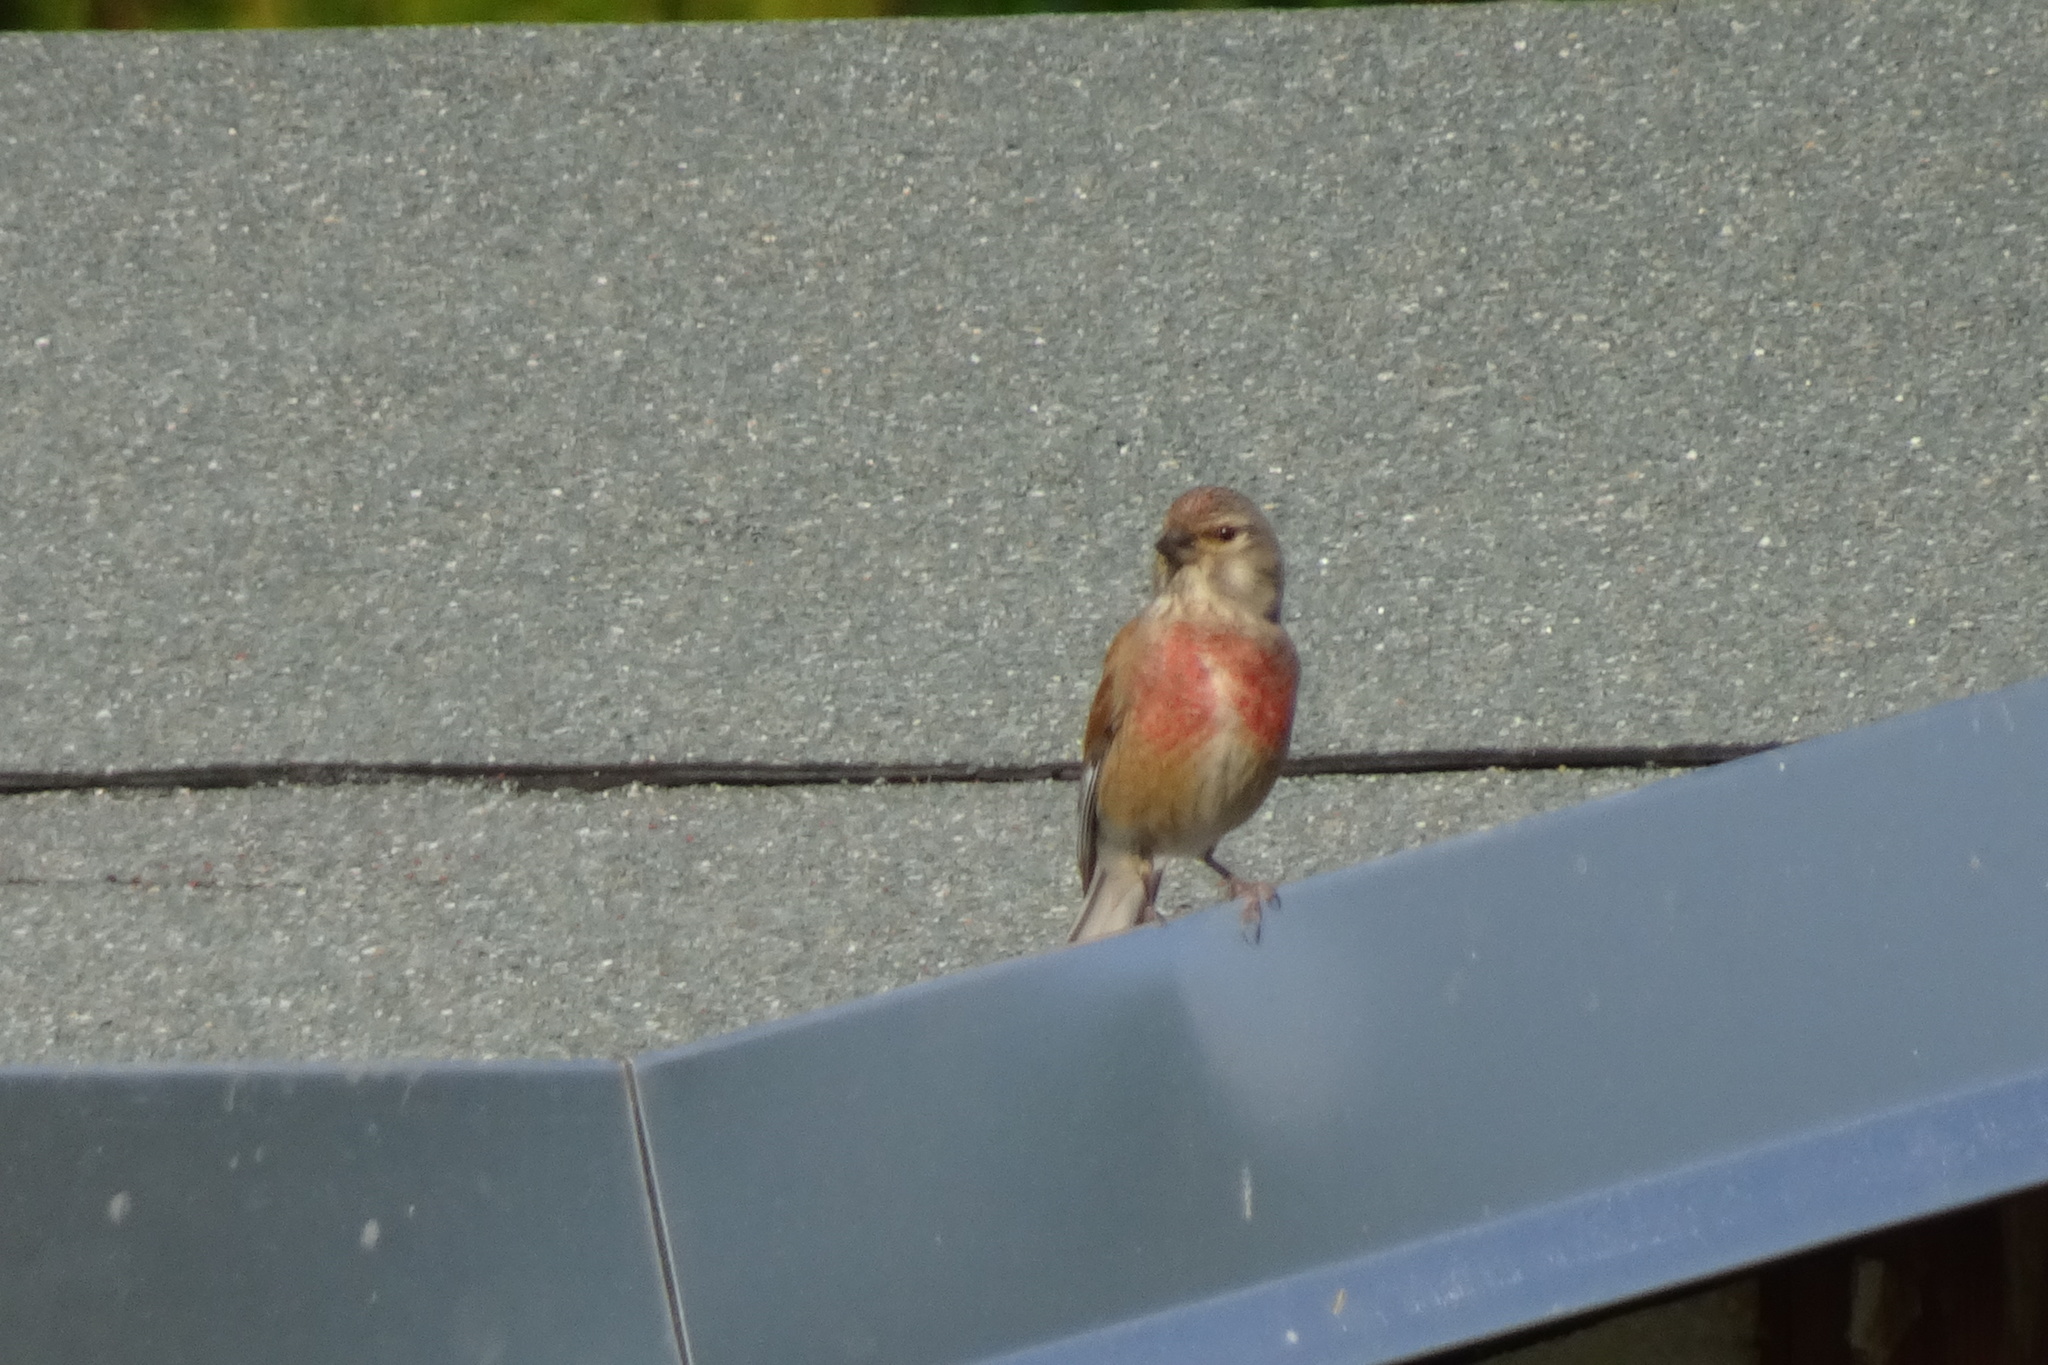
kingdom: Animalia
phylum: Chordata
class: Aves
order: Passeriformes
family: Fringillidae
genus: Linaria
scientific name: Linaria cannabina
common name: Common linnet
